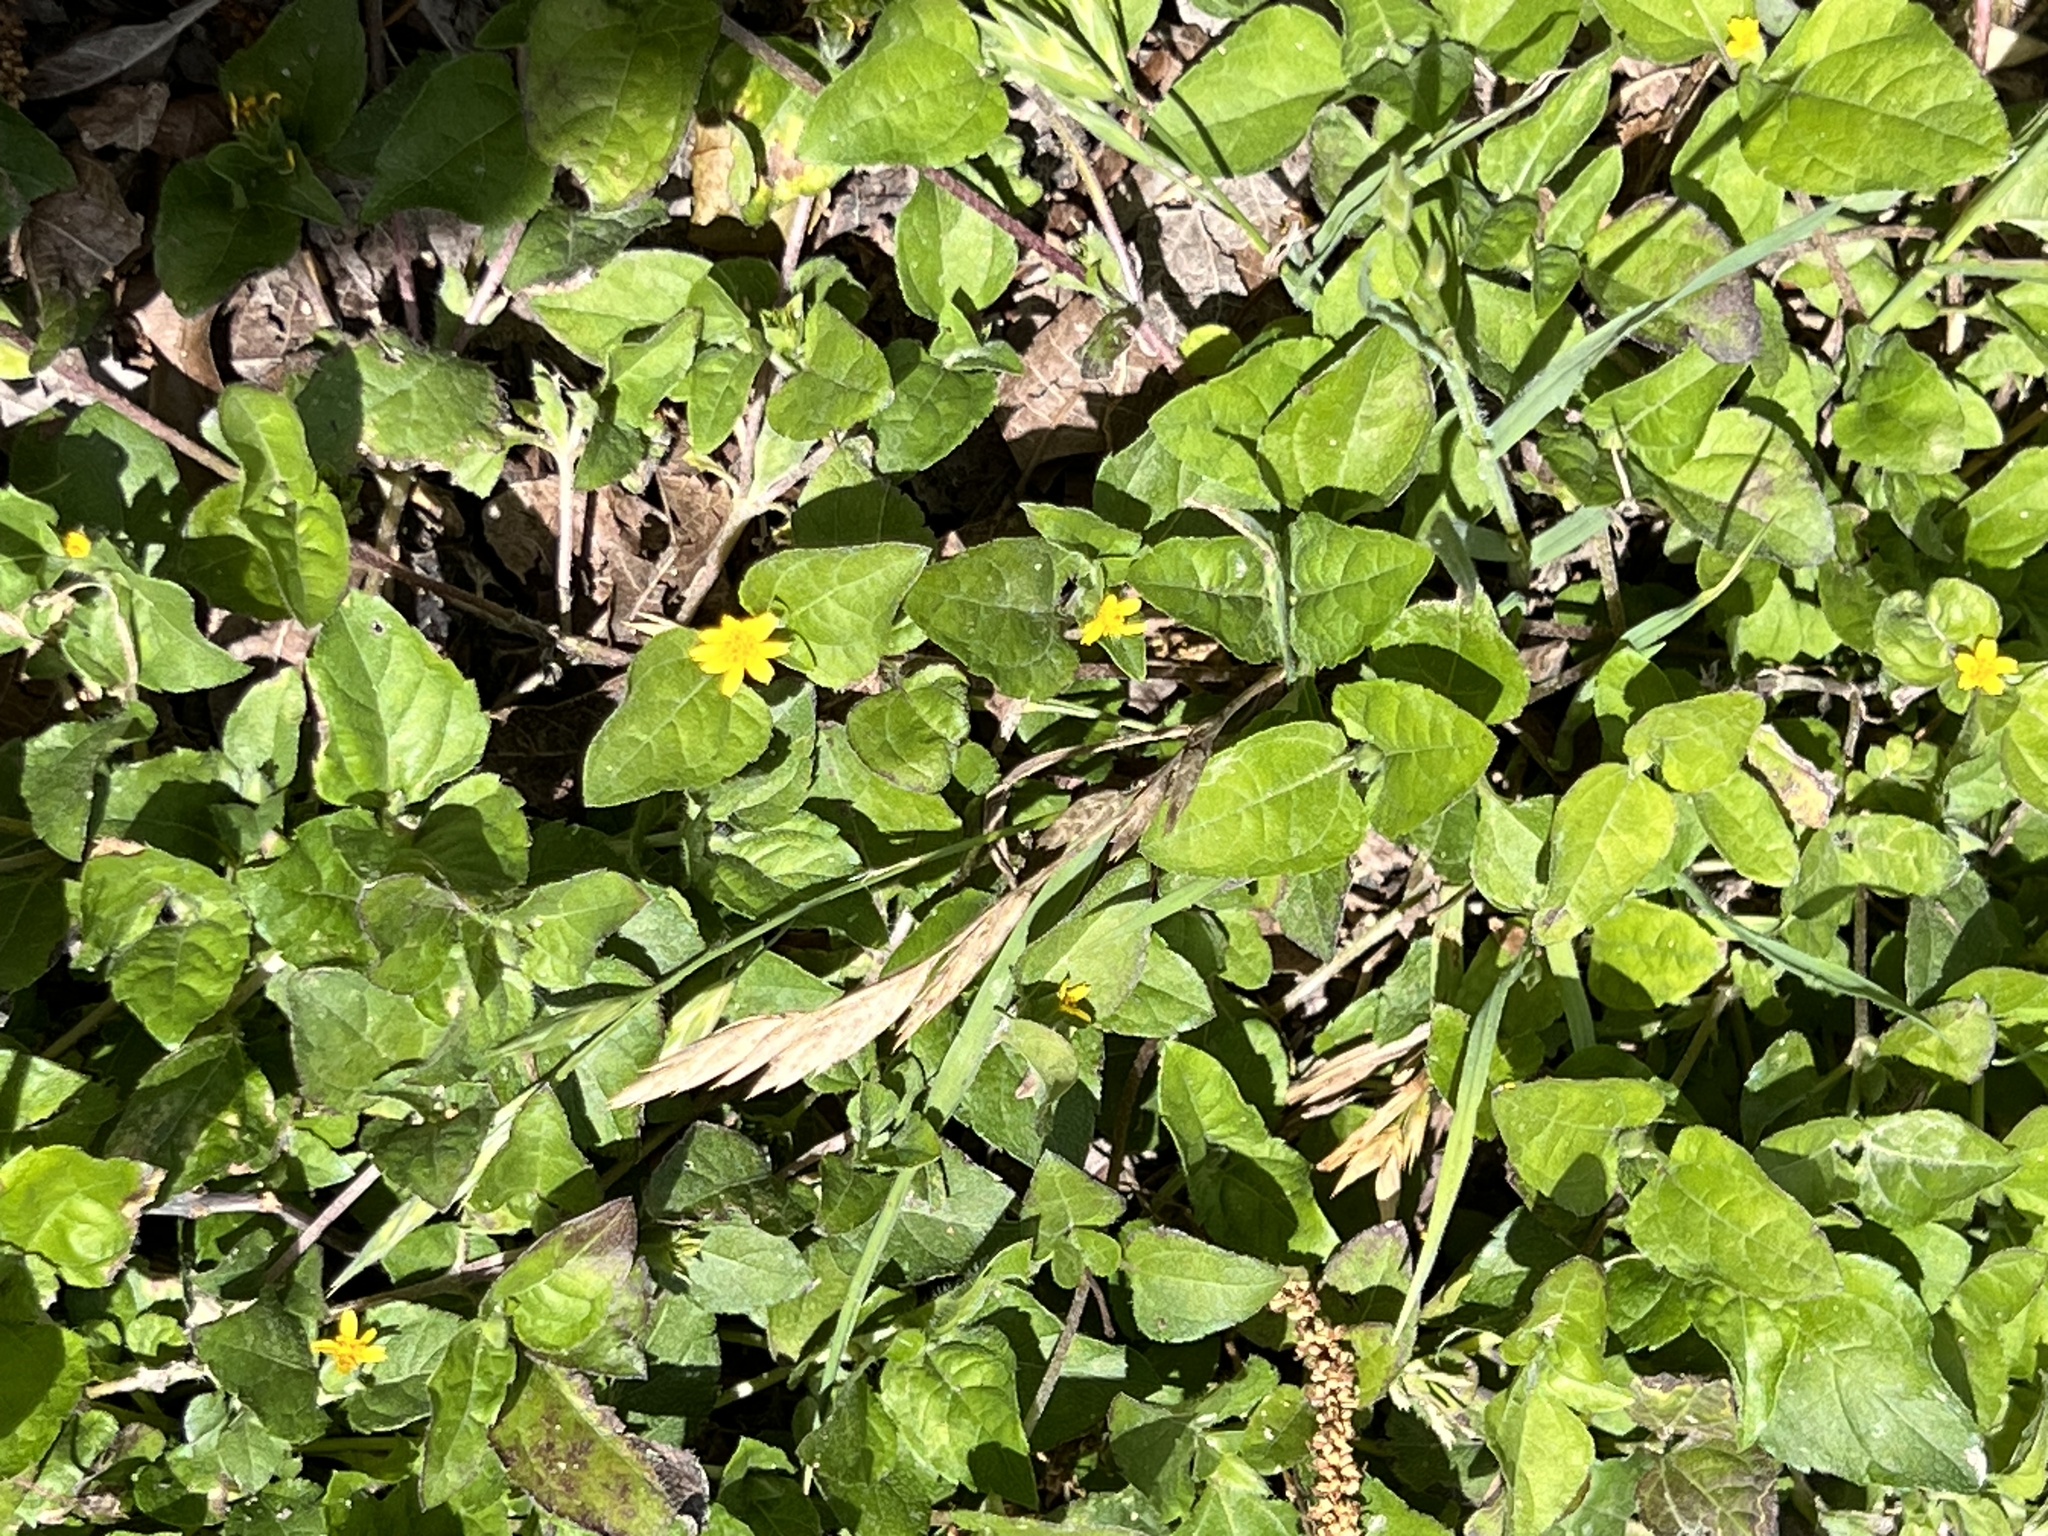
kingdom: Plantae
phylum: Tracheophyta
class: Magnoliopsida
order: Asterales
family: Asteraceae
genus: Calyptocarpus
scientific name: Calyptocarpus vialis
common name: Straggler daisy
